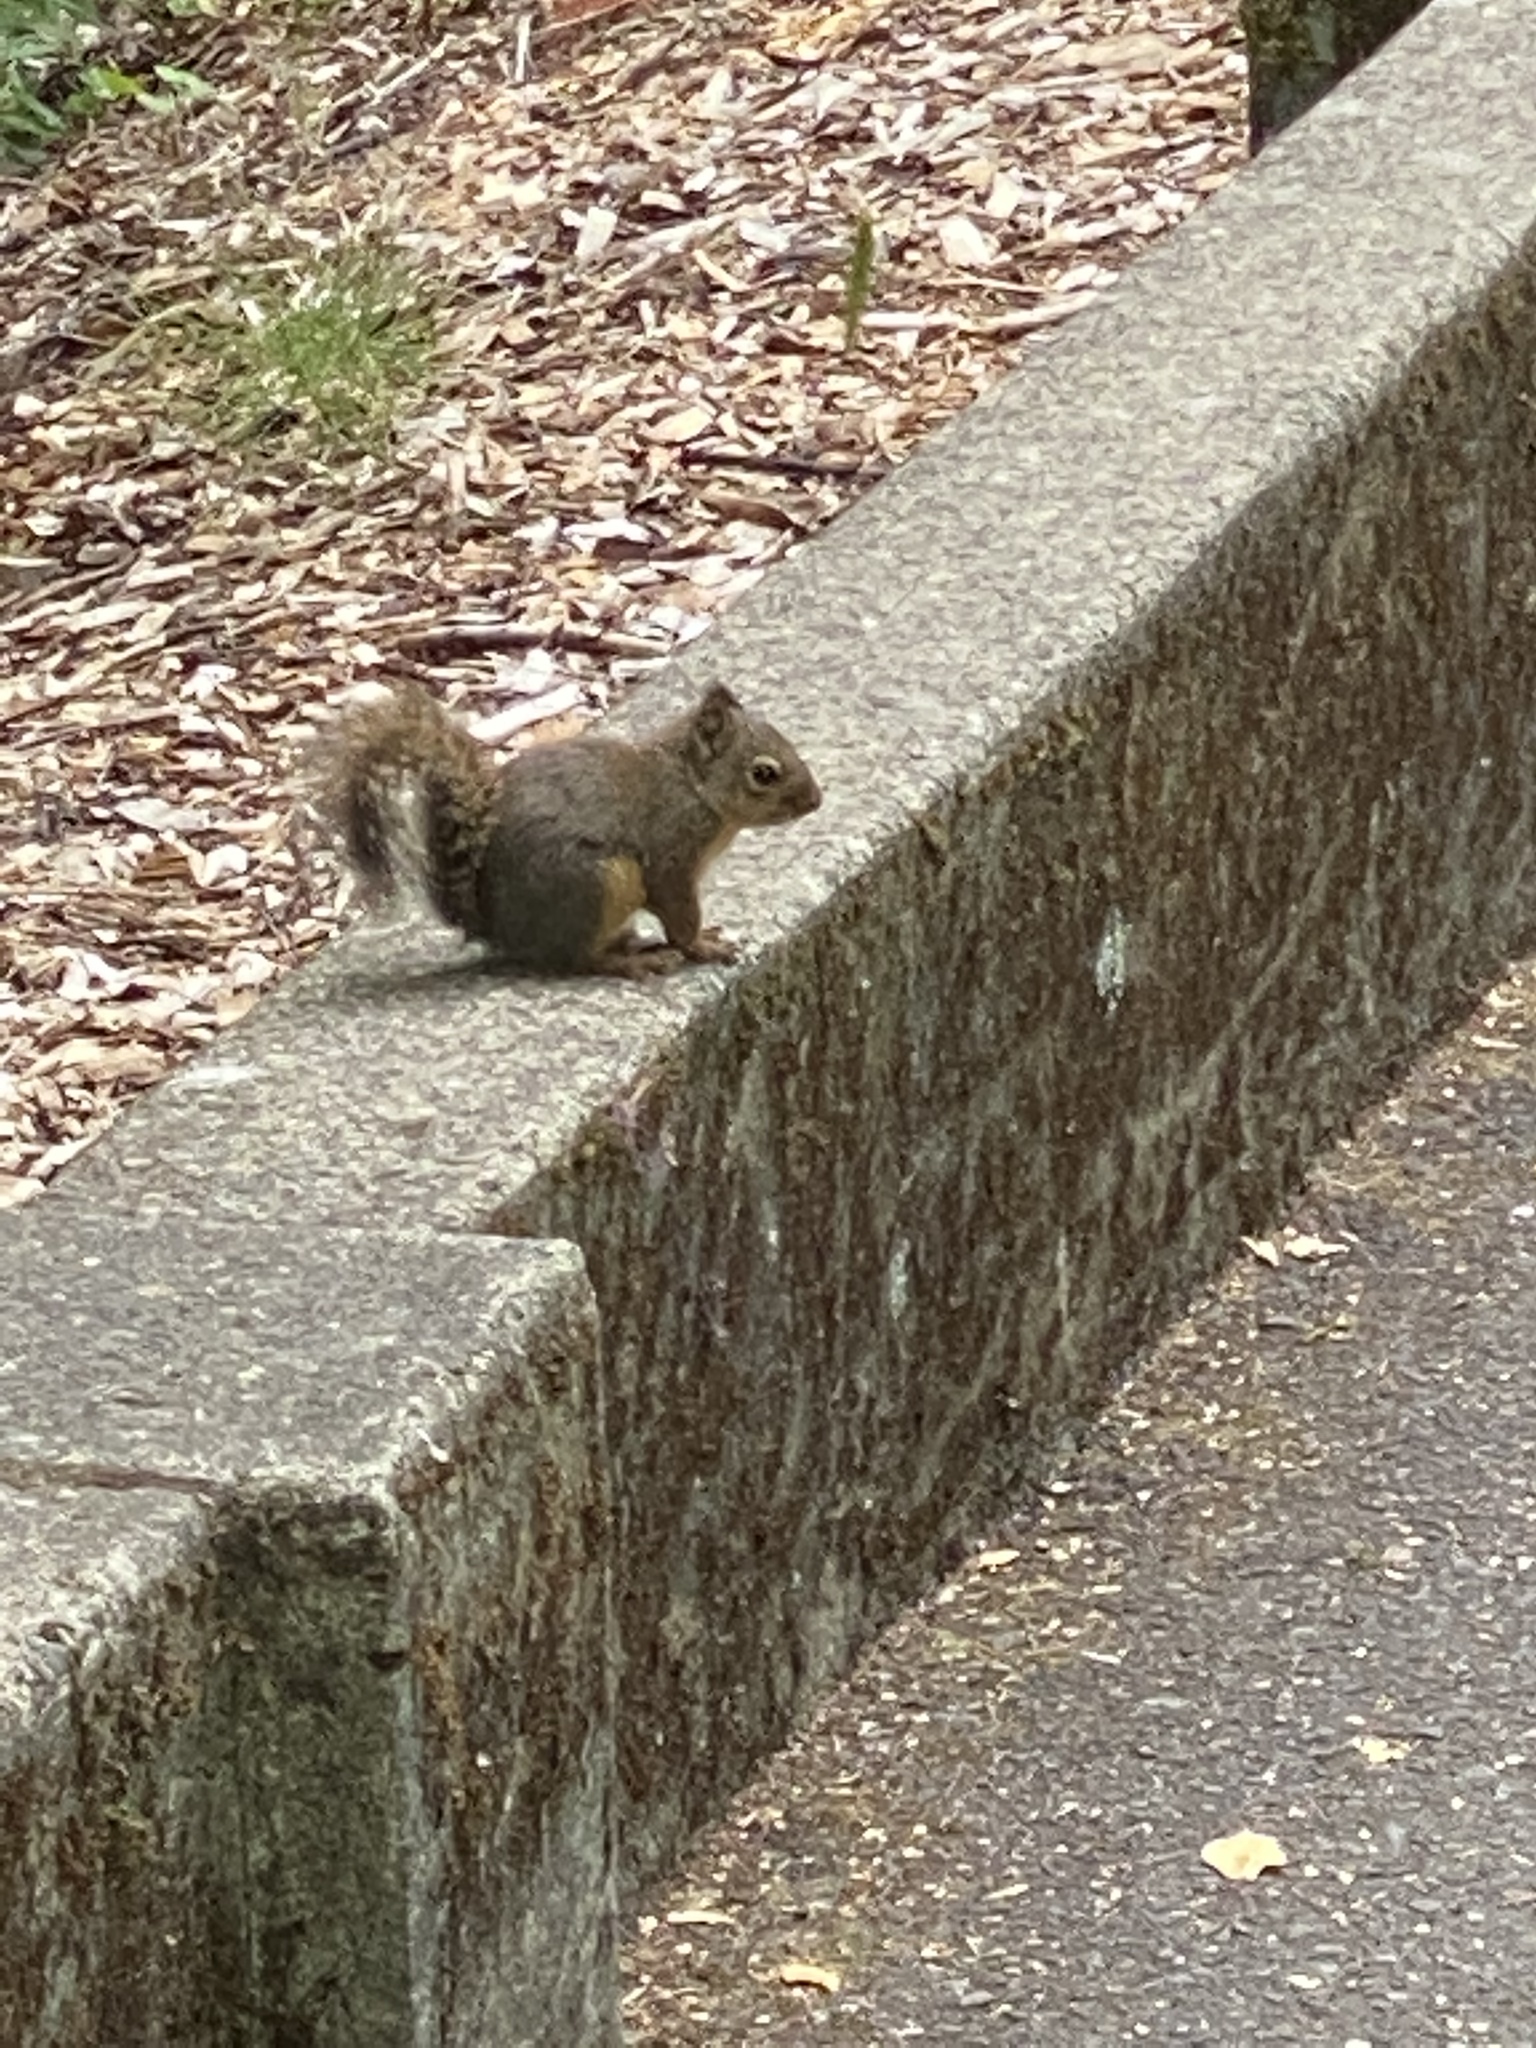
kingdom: Animalia
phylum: Chordata
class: Mammalia
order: Rodentia
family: Sciuridae
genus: Tamiasciurus
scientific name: Tamiasciurus douglasii
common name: Douglas's squirrel
